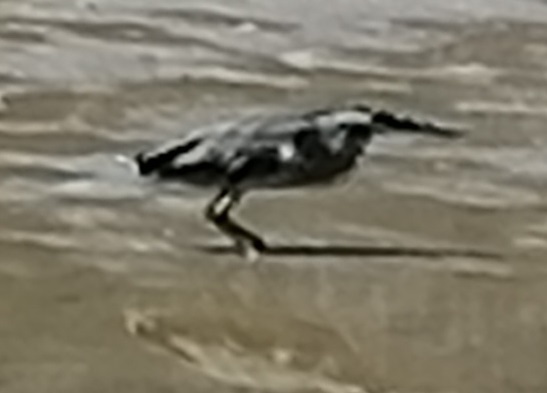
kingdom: Animalia
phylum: Chordata
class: Aves
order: Pelecaniformes
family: Ardeidae
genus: Butorides
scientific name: Butorides striata
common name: Striated heron
